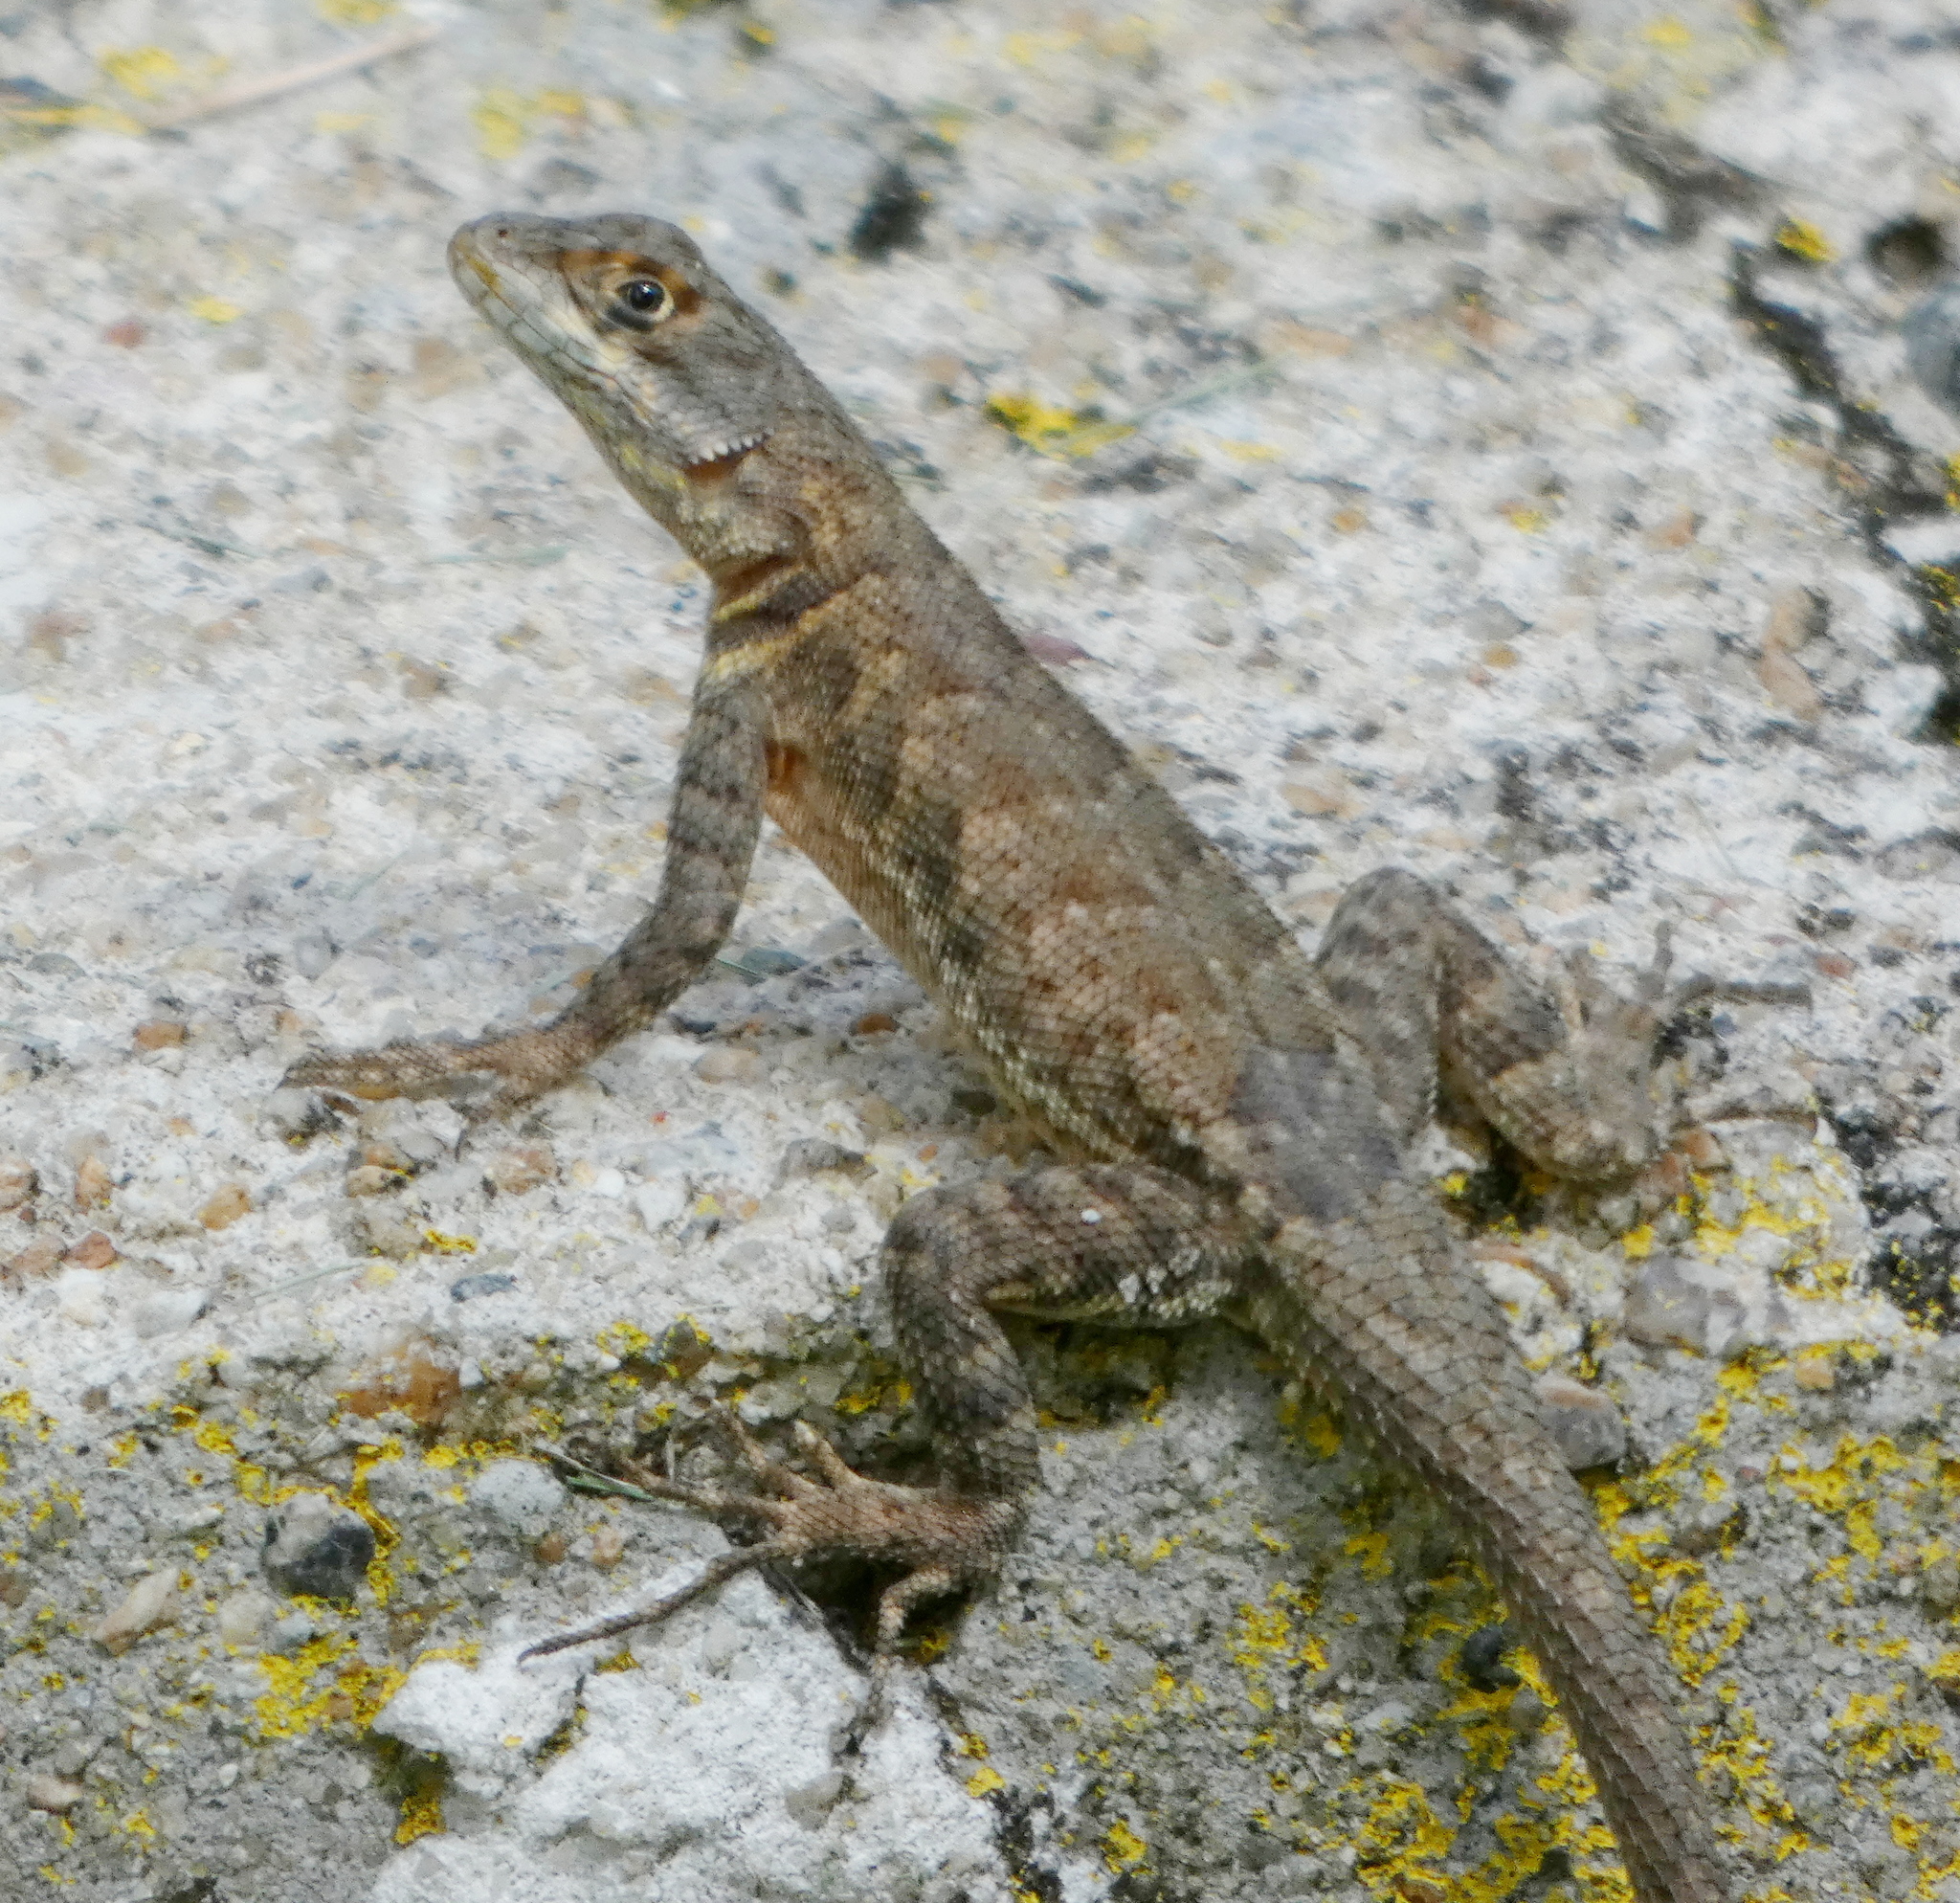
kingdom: Animalia
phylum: Chordata
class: Squamata
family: Tropiduridae
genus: Tropidurus
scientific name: Tropidurus hispidus
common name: Peters' lava lizard
